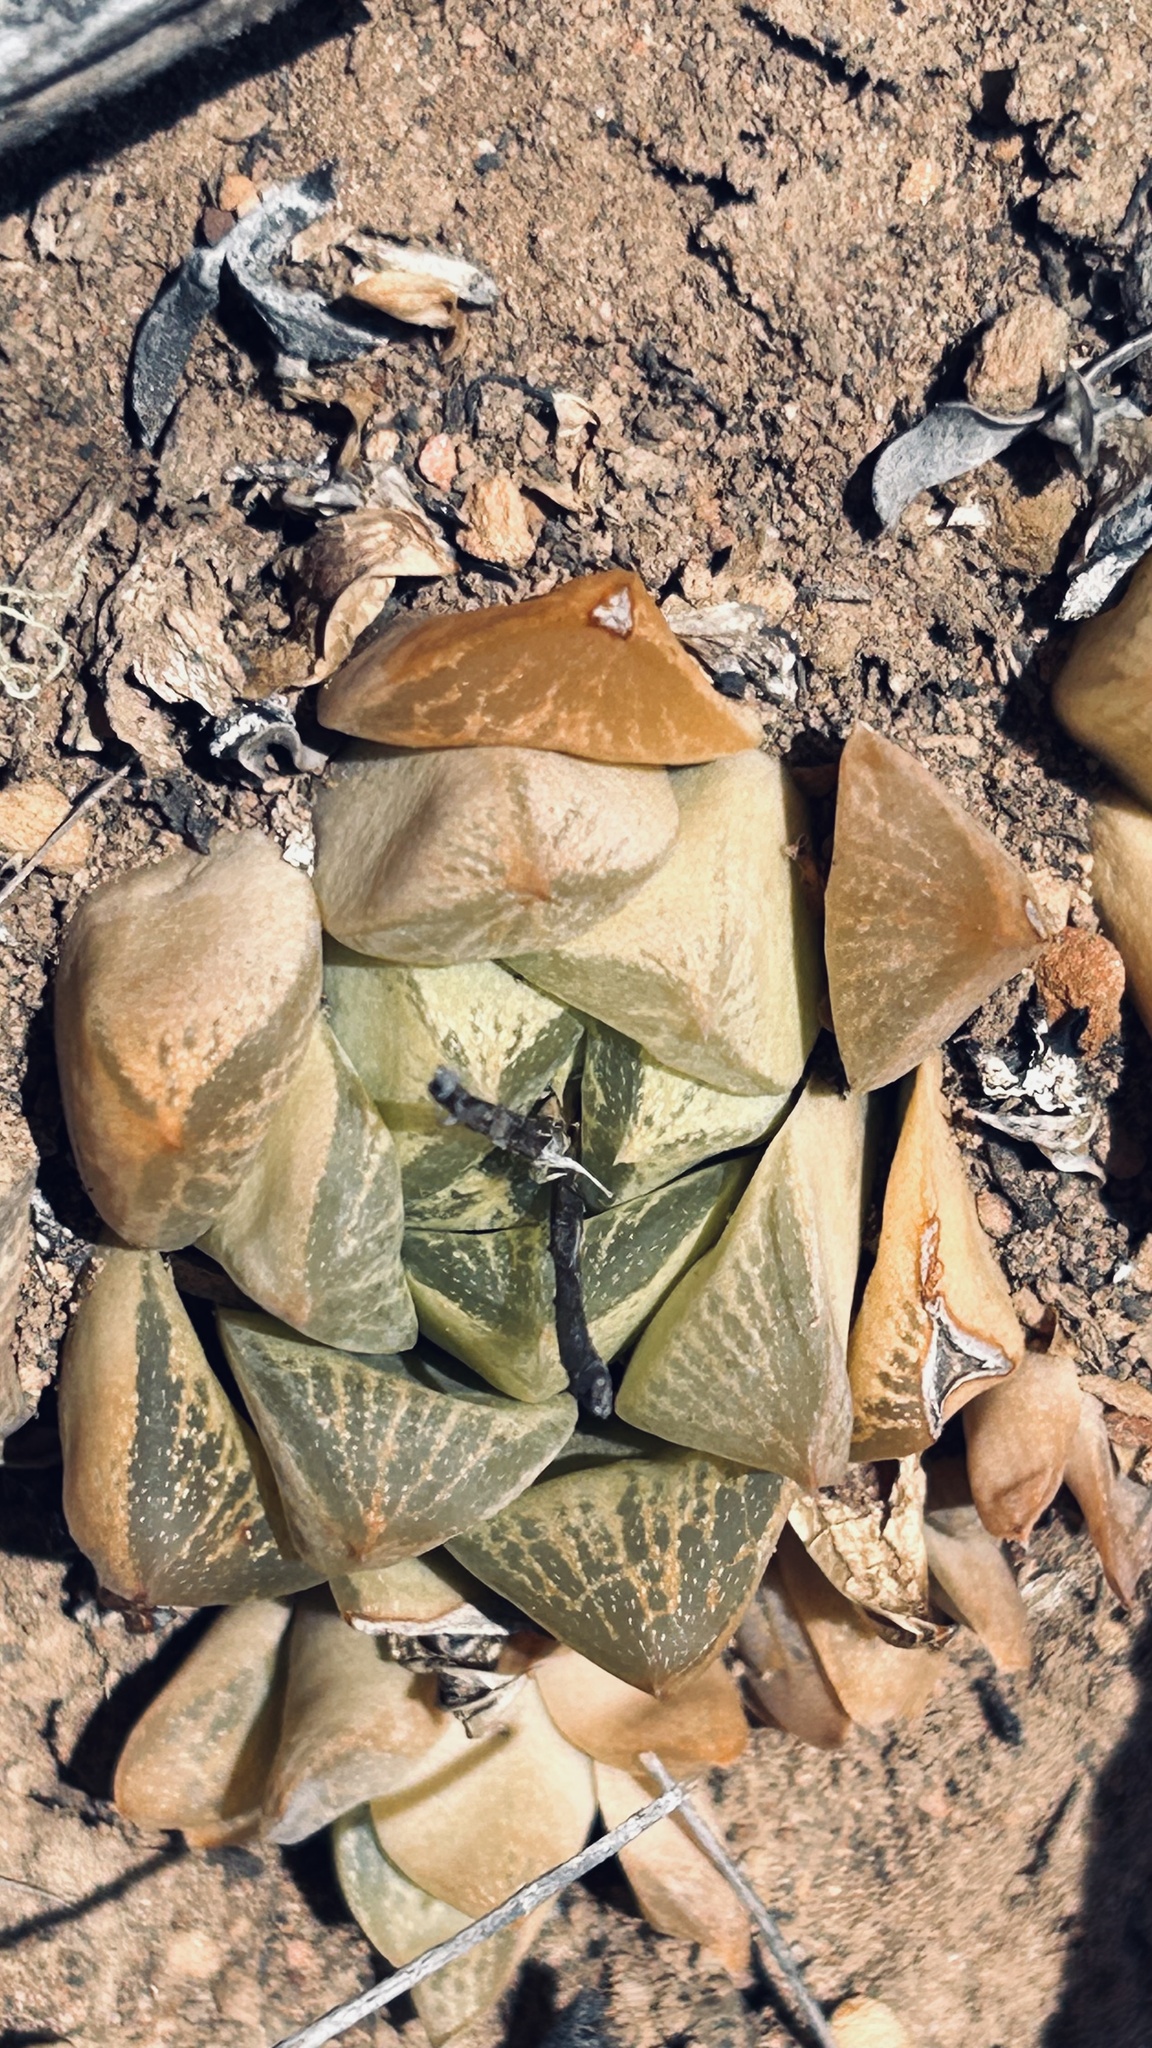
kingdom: Plantae
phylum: Tracheophyta
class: Liliopsida
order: Asparagales
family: Asphodelaceae
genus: Haworthia
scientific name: Haworthia turgida
